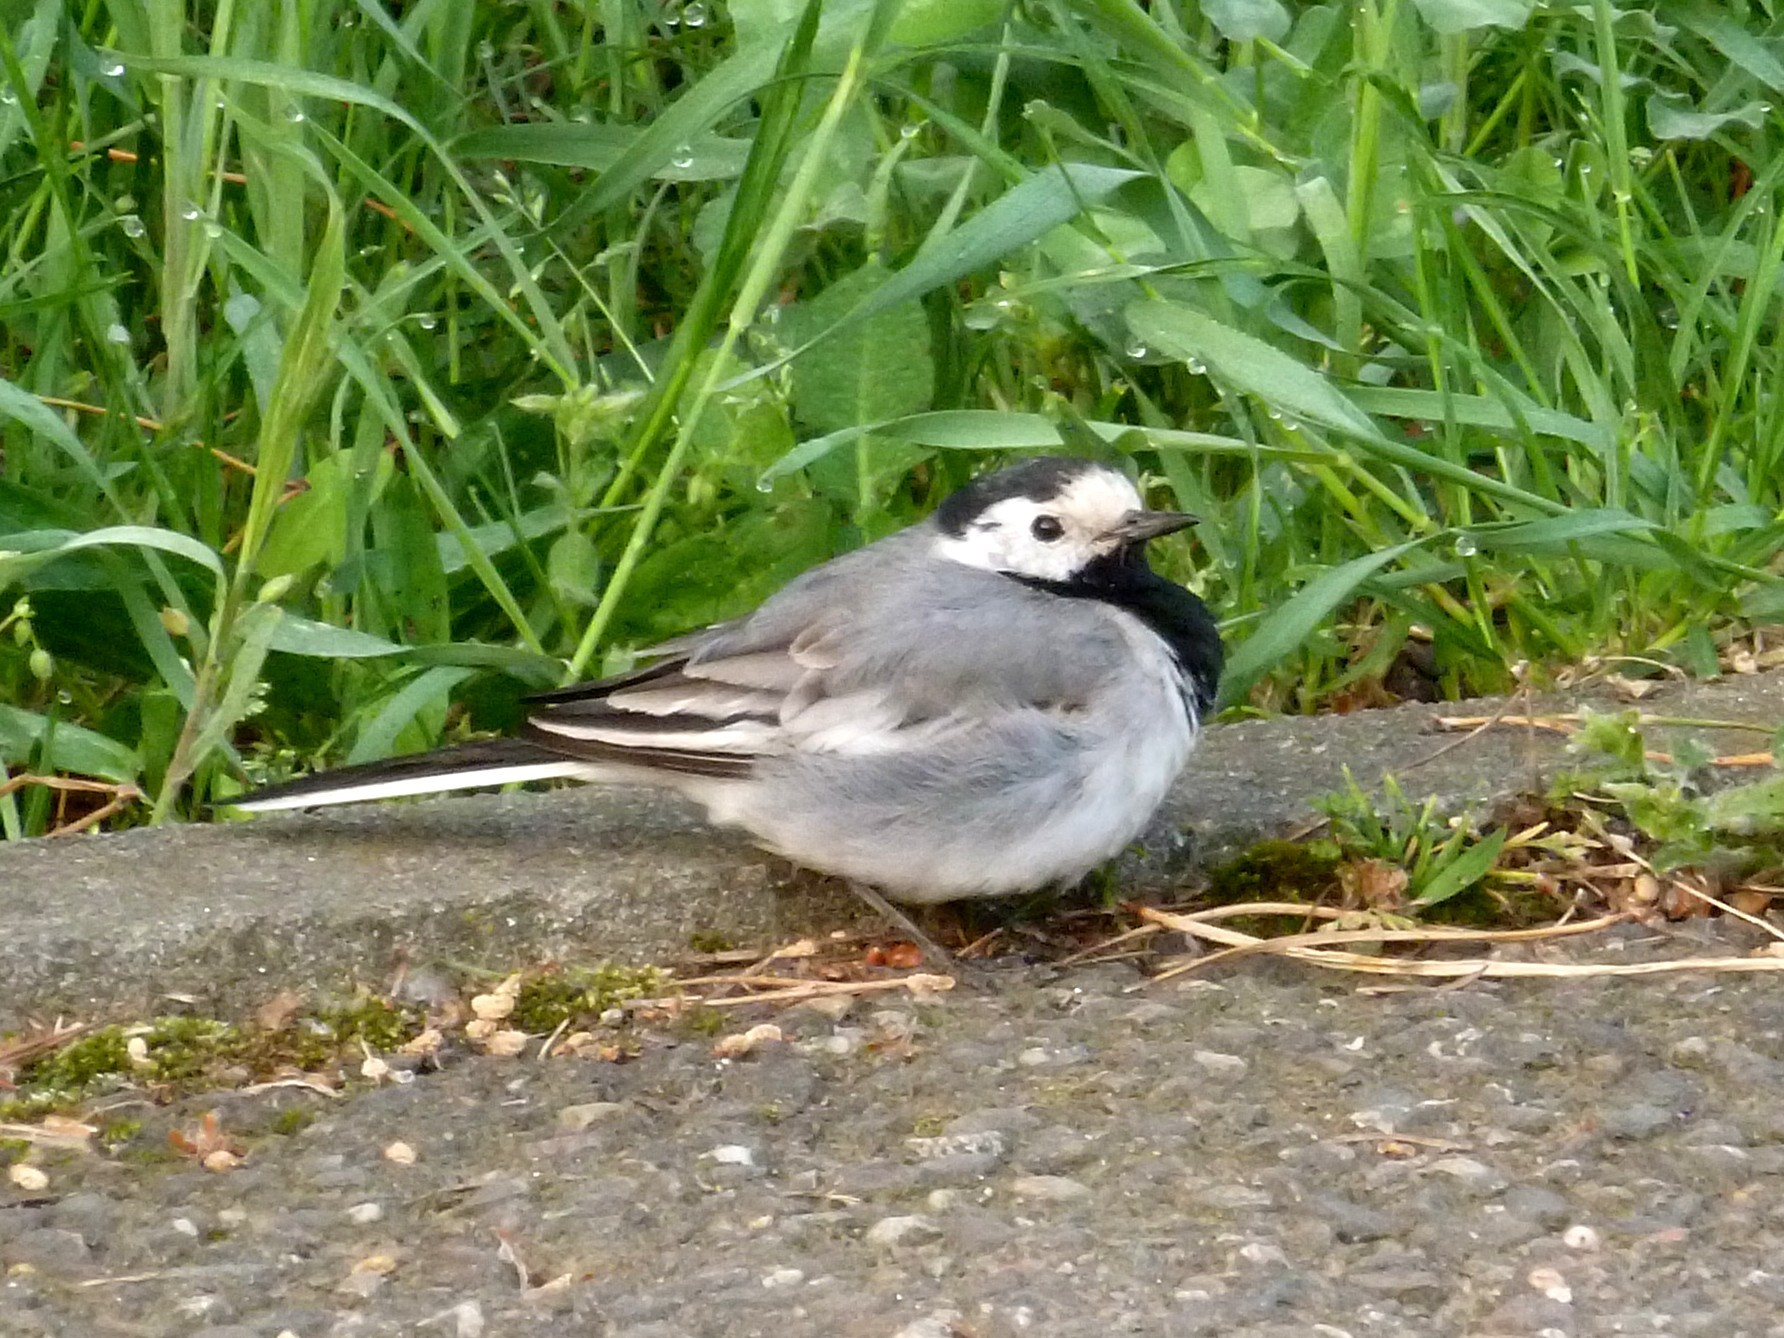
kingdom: Animalia
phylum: Chordata
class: Aves
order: Passeriformes
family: Motacillidae
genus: Motacilla
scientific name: Motacilla alba
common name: White wagtail
